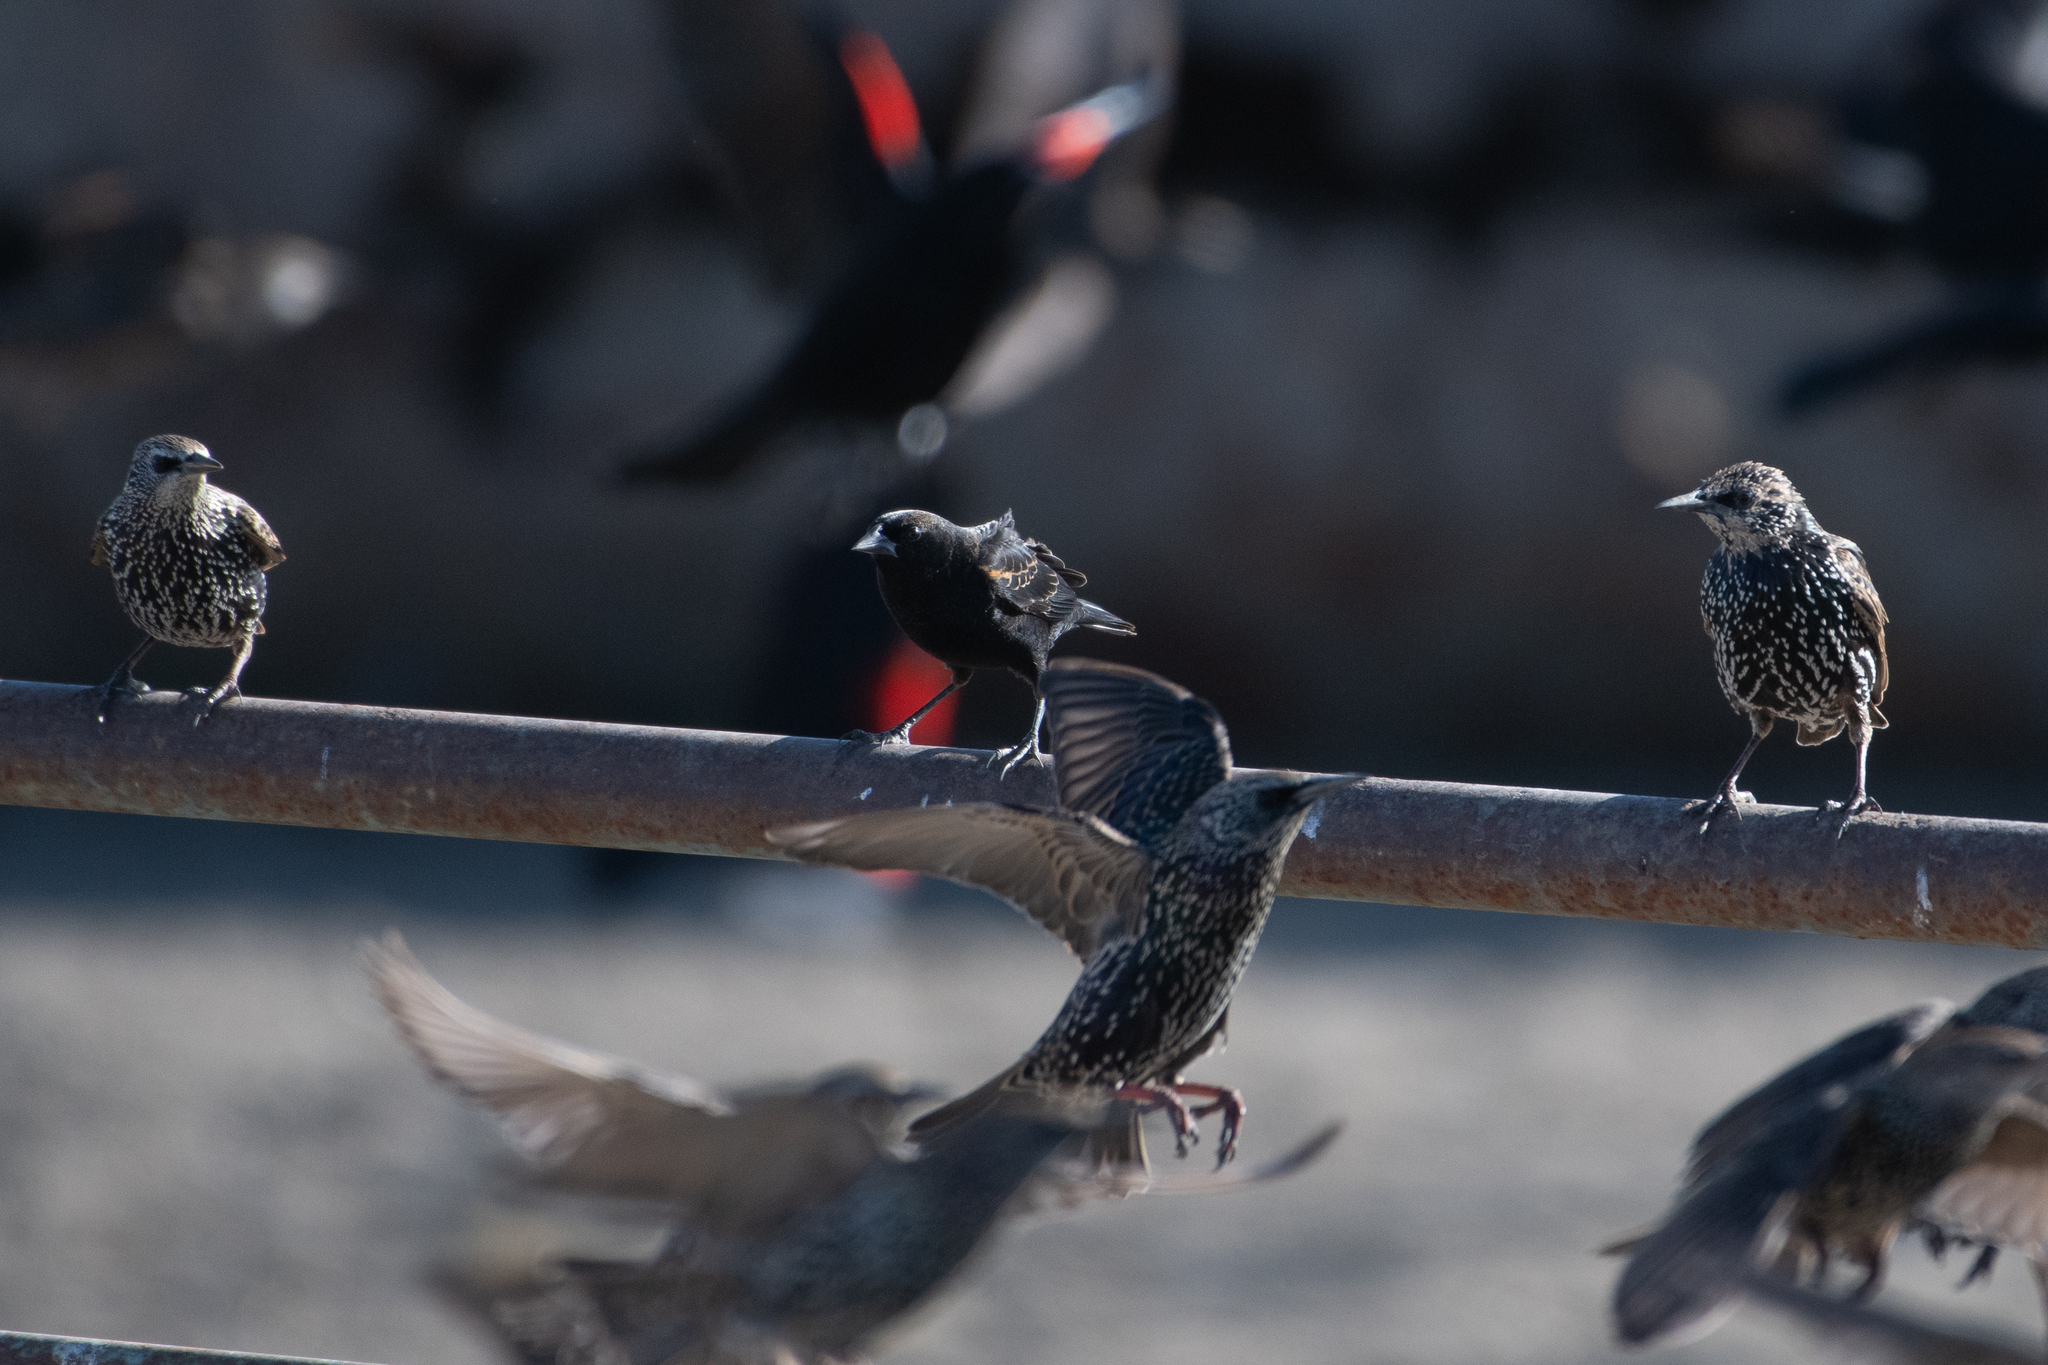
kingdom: Animalia
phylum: Chordata
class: Aves
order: Passeriformes
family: Icteridae
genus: Agelaius
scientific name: Agelaius phoeniceus
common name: Red-winged blackbird
